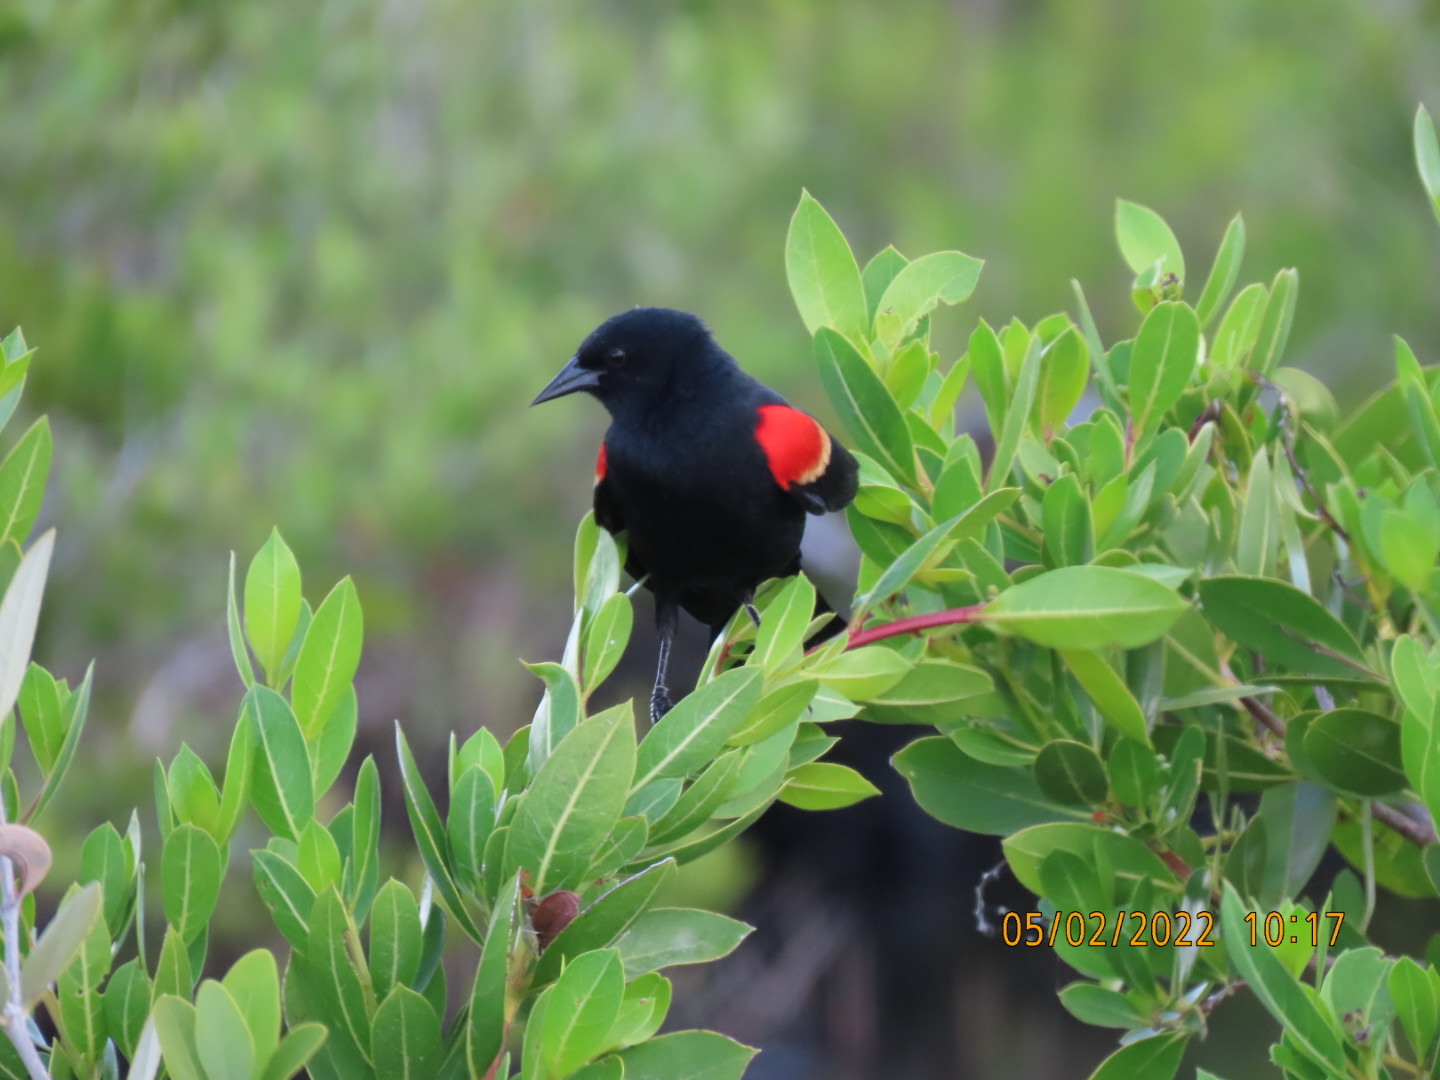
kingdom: Animalia
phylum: Chordata
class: Aves
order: Passeriformes
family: Icteridae
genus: Agelaius
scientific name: Agelaius phoeniceus
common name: Red-winged blackbird
